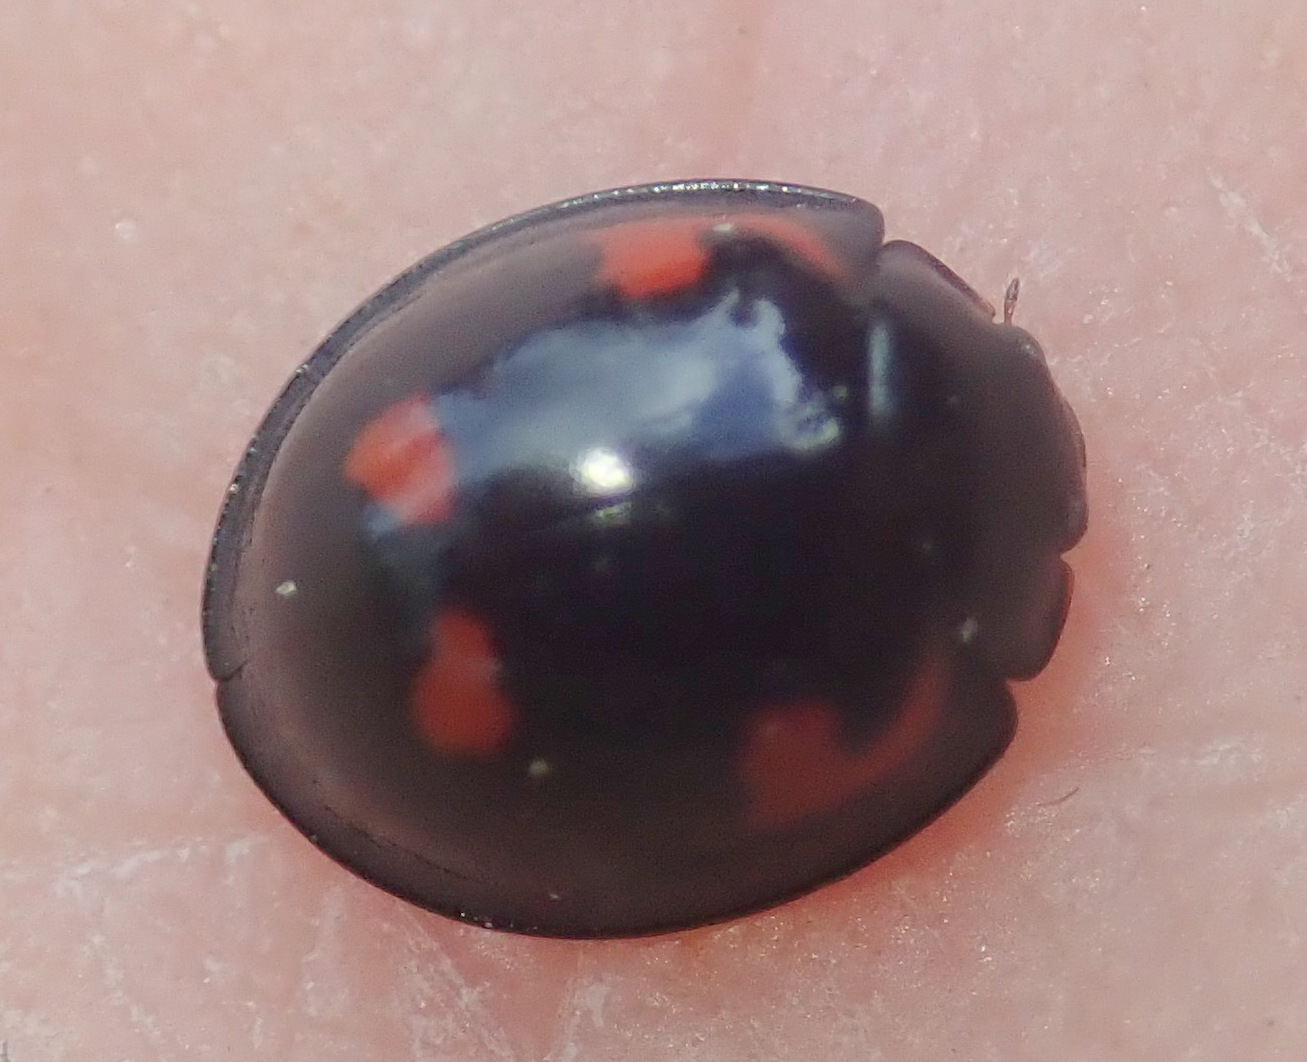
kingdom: Animalia
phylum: Arthropoda
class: Insecta
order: Coleoptera
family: Coccinellidae
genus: Brumus
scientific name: Brumus quadripustulatus
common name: Ladybird beetle
